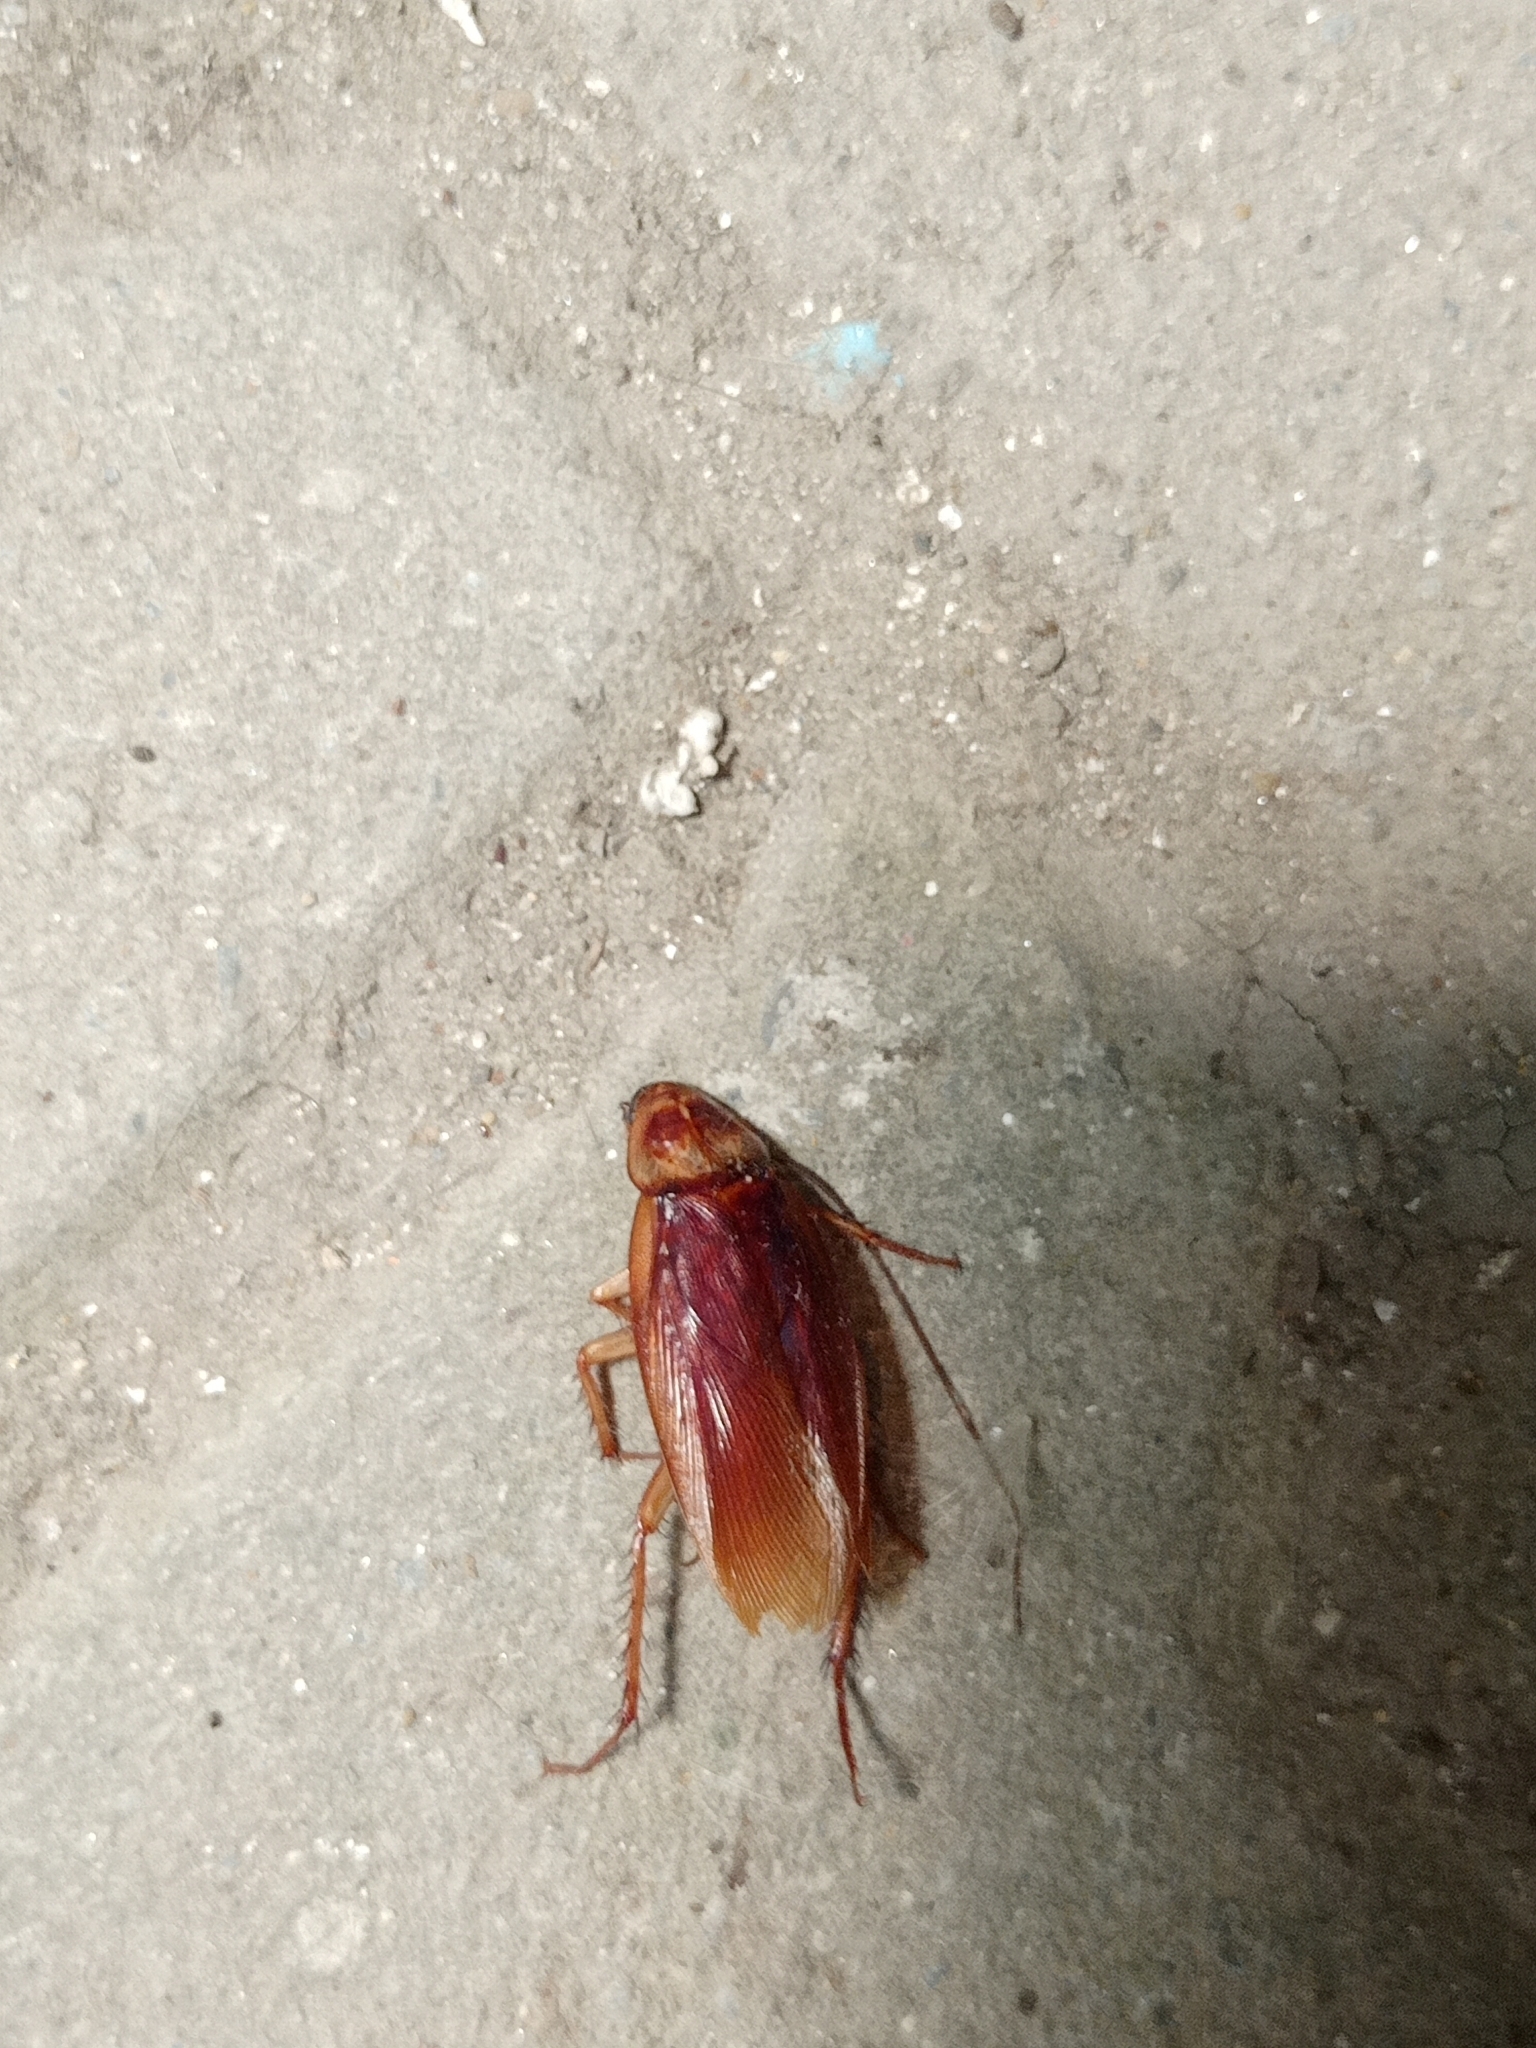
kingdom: Animalia
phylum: Arthropoda
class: Insecta
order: Blattodea
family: Blattidae
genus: Periplaneta
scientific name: Periplaneta americana
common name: American cockroach
